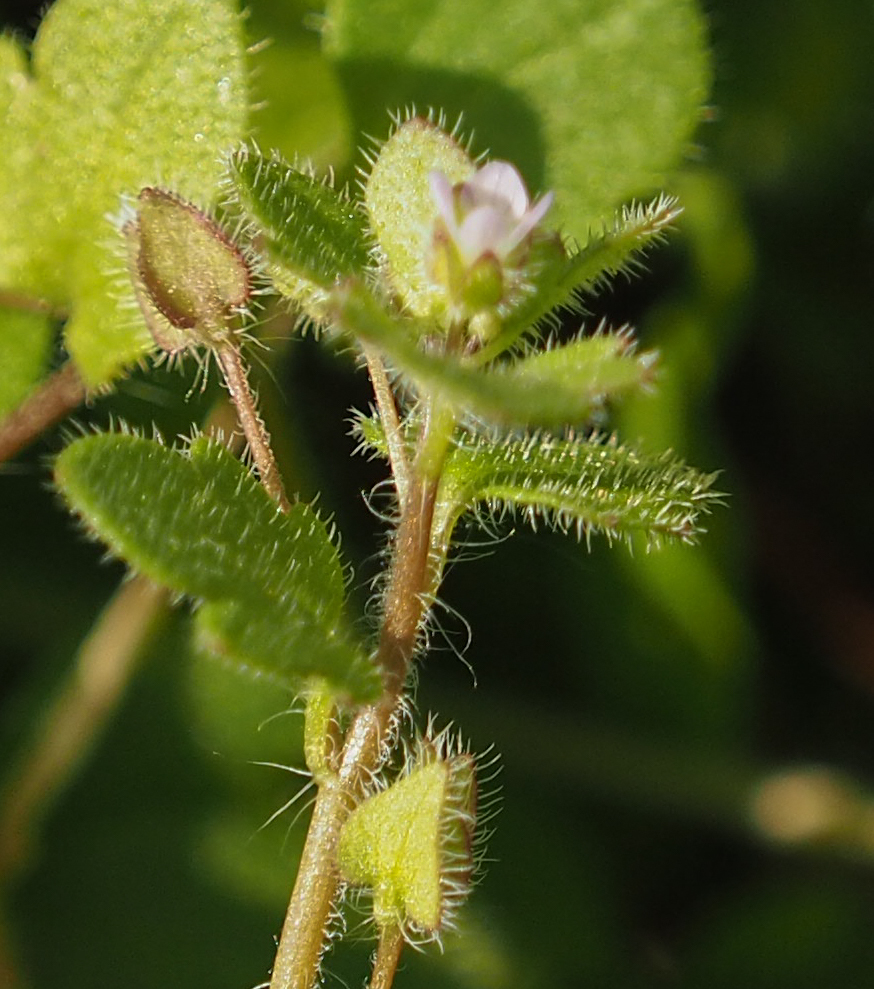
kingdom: Plantae
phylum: Tracheophyta
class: Magnoliopsida
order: Lamiales
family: Plantaginaceae
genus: Veronica
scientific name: Veronica sublobata
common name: False ivy-leaved speedwell
